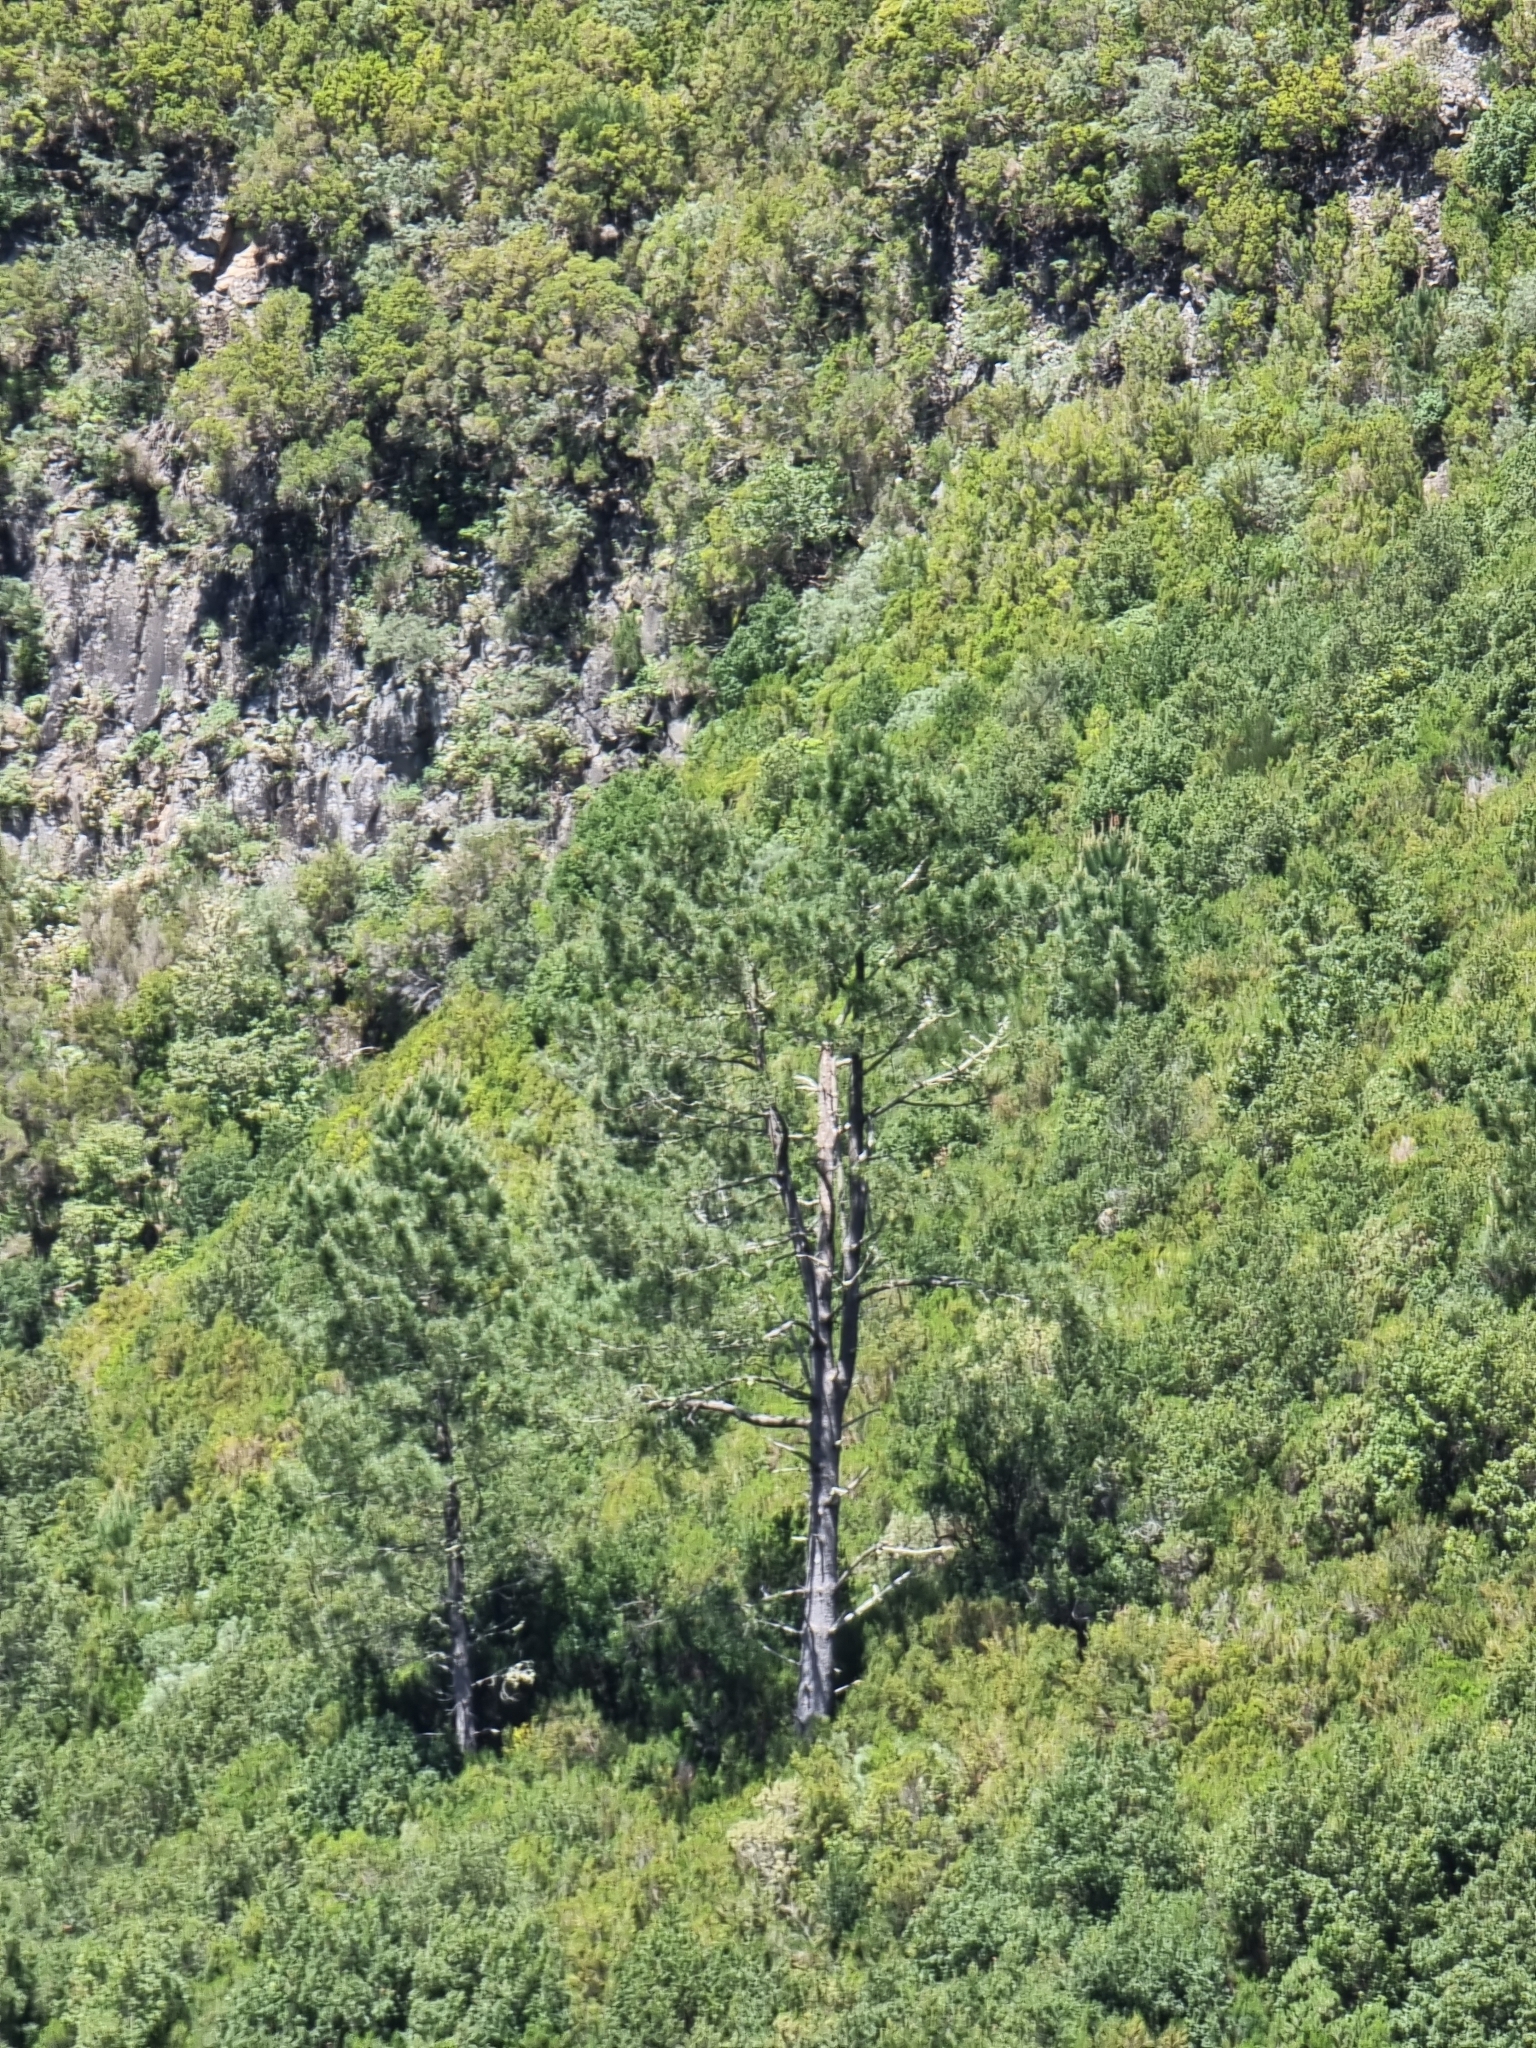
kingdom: Plantae
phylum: Tracheophyta
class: Pinopsida
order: Pinales
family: Pinaceae
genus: Pinus
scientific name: Pinus pinaster
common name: Maritime pine
